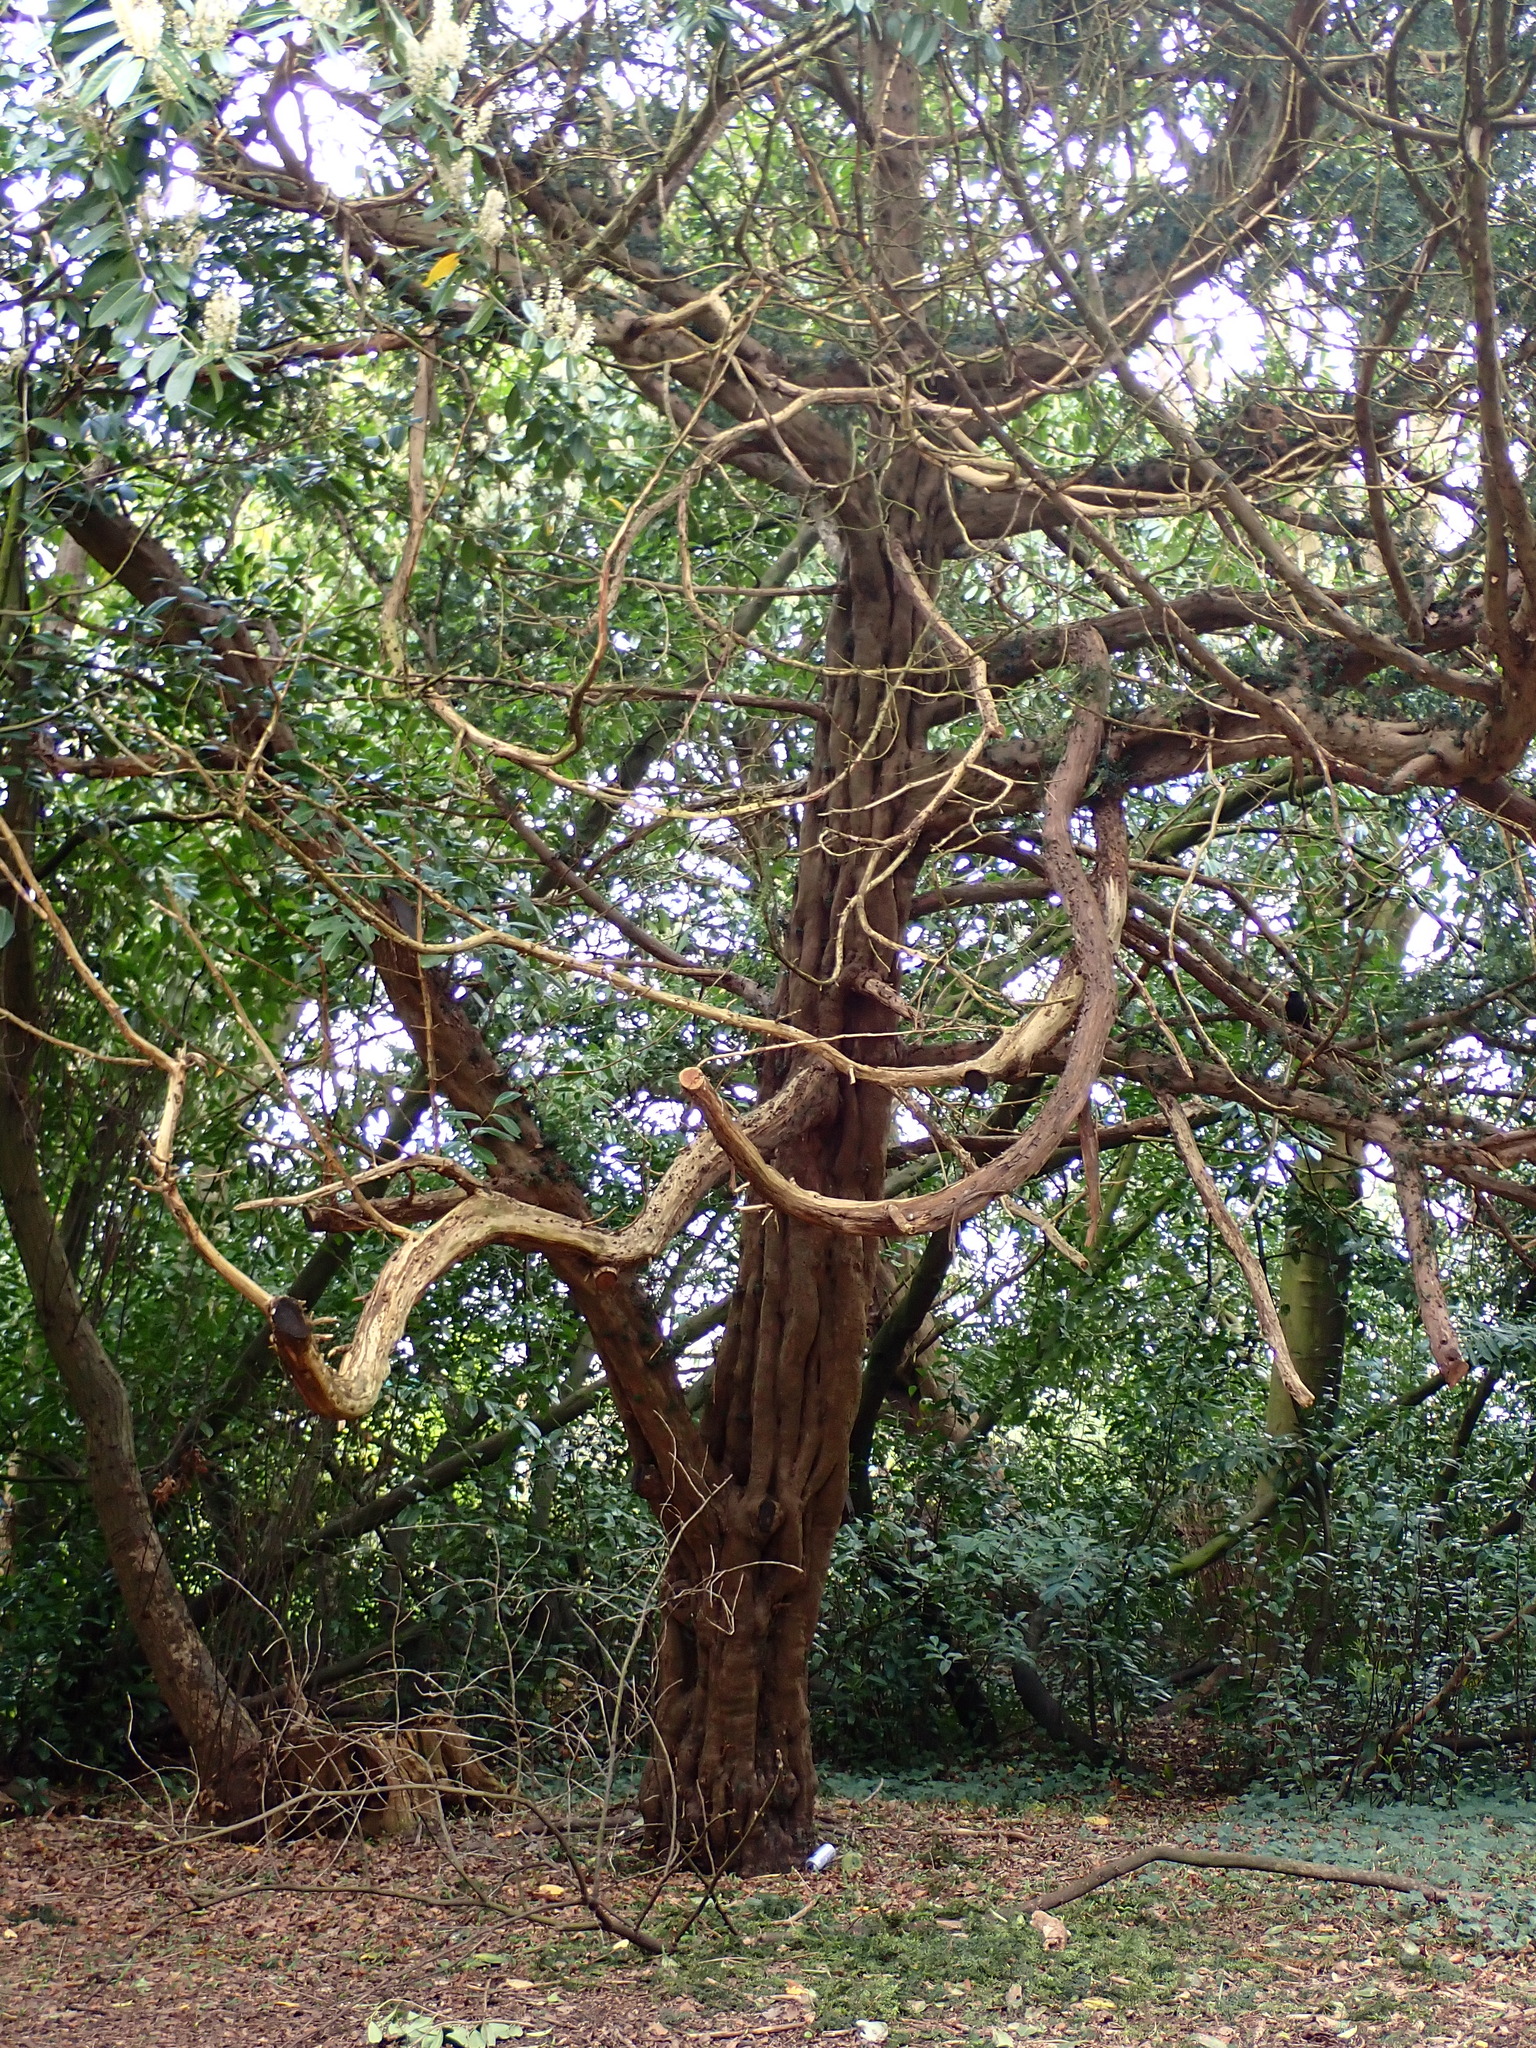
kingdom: Plantae
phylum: Tracheophyta
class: Pinopsida
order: Pinales
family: Taxaceae
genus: Taxus
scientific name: Taxus baccata
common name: Yew
